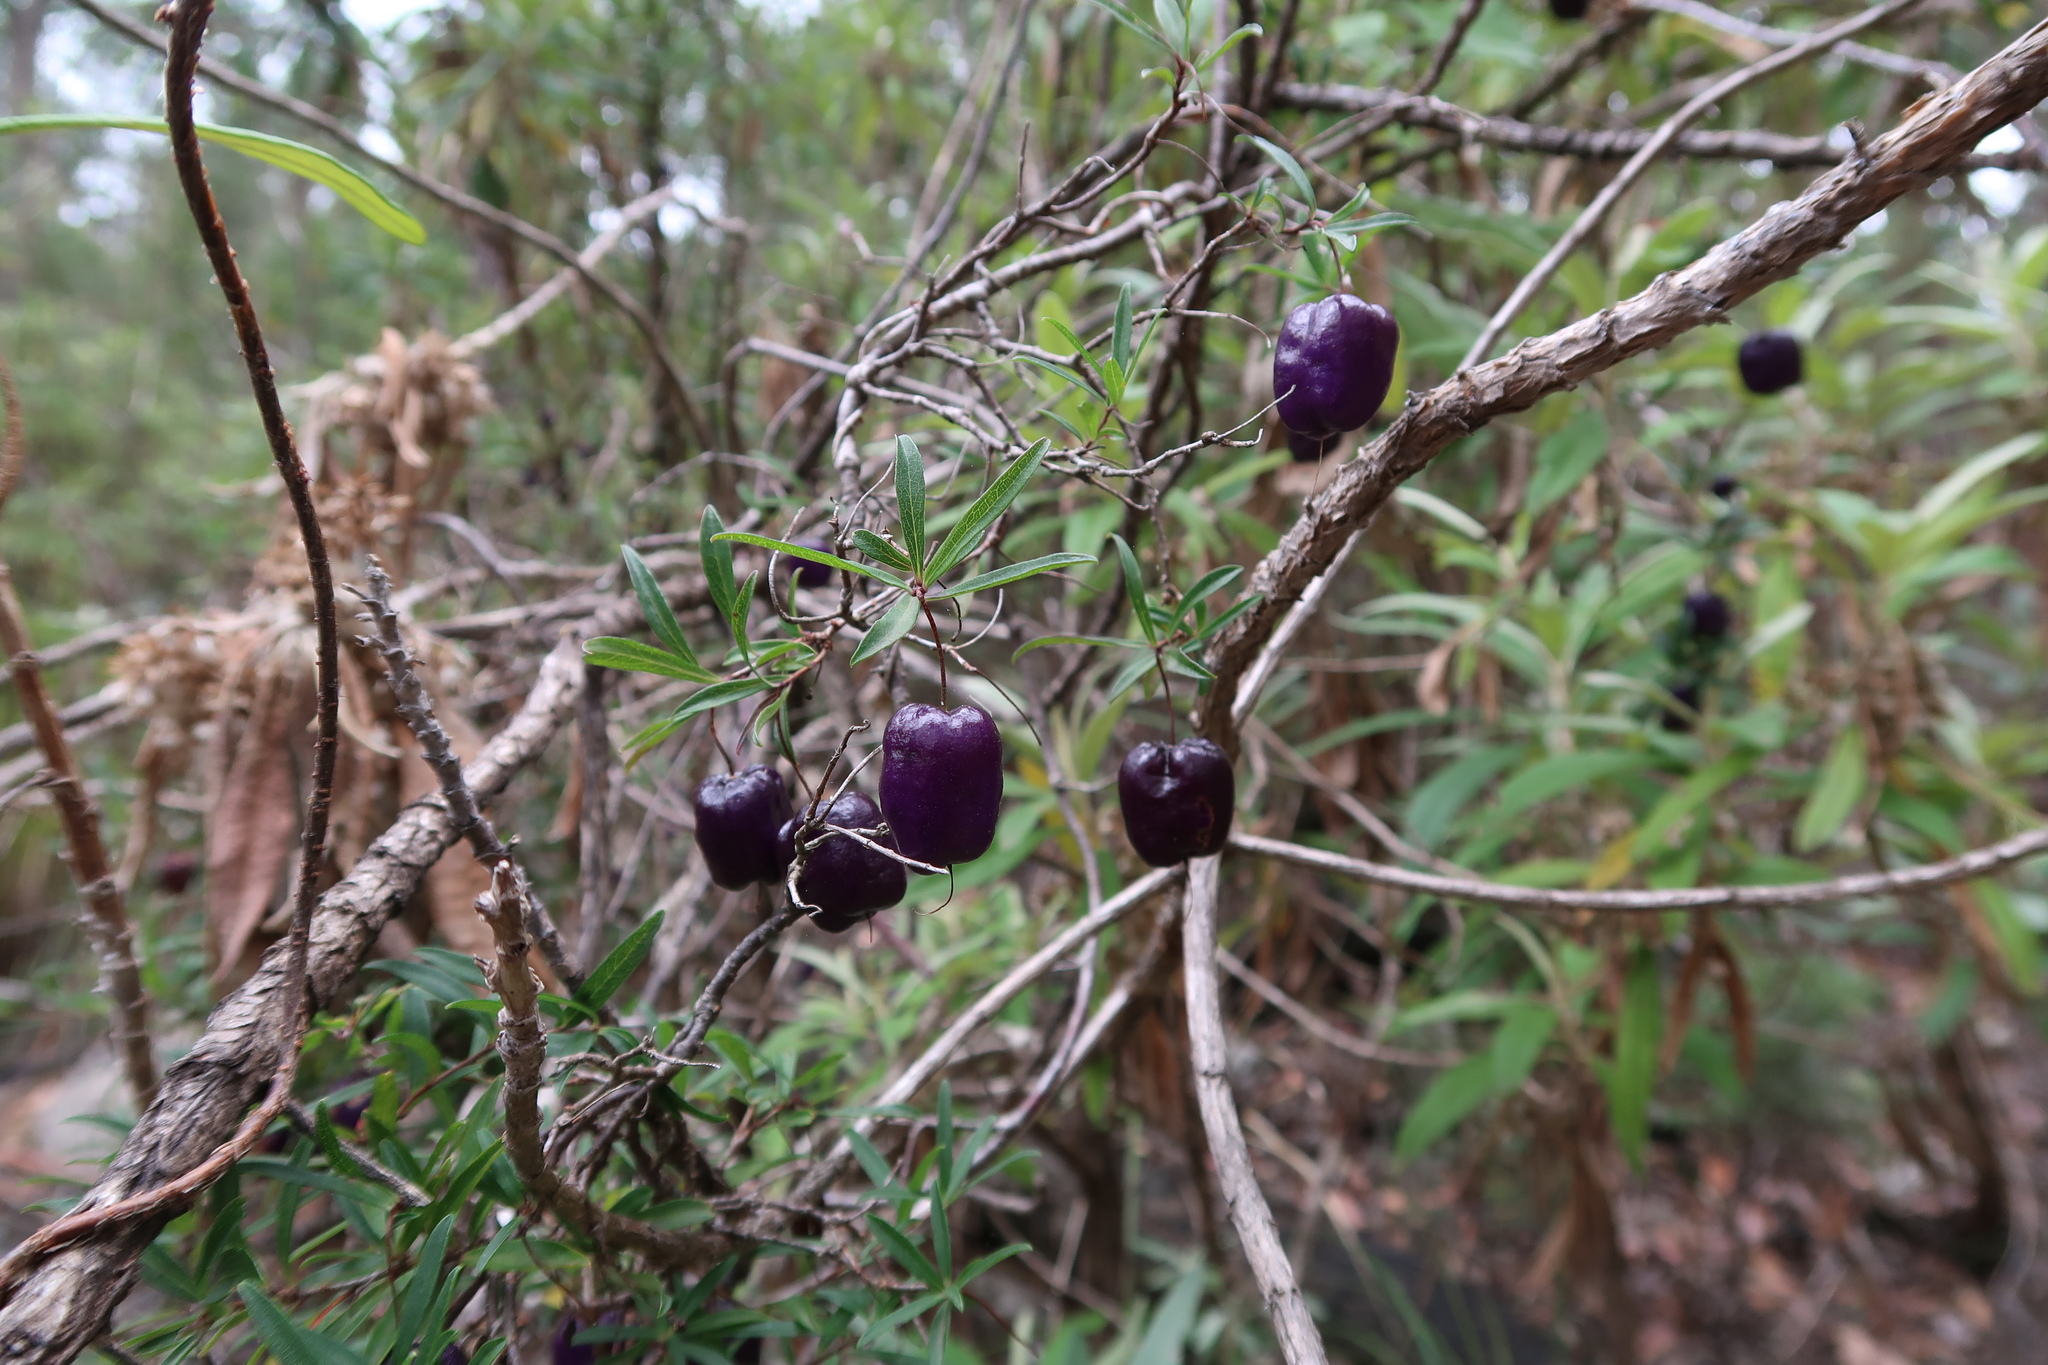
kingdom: Plantae
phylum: Tracheophyta
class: Magnoliopsida
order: Apiales
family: Pittosporaceae
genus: Billardiera
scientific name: Billardiera macrantha
